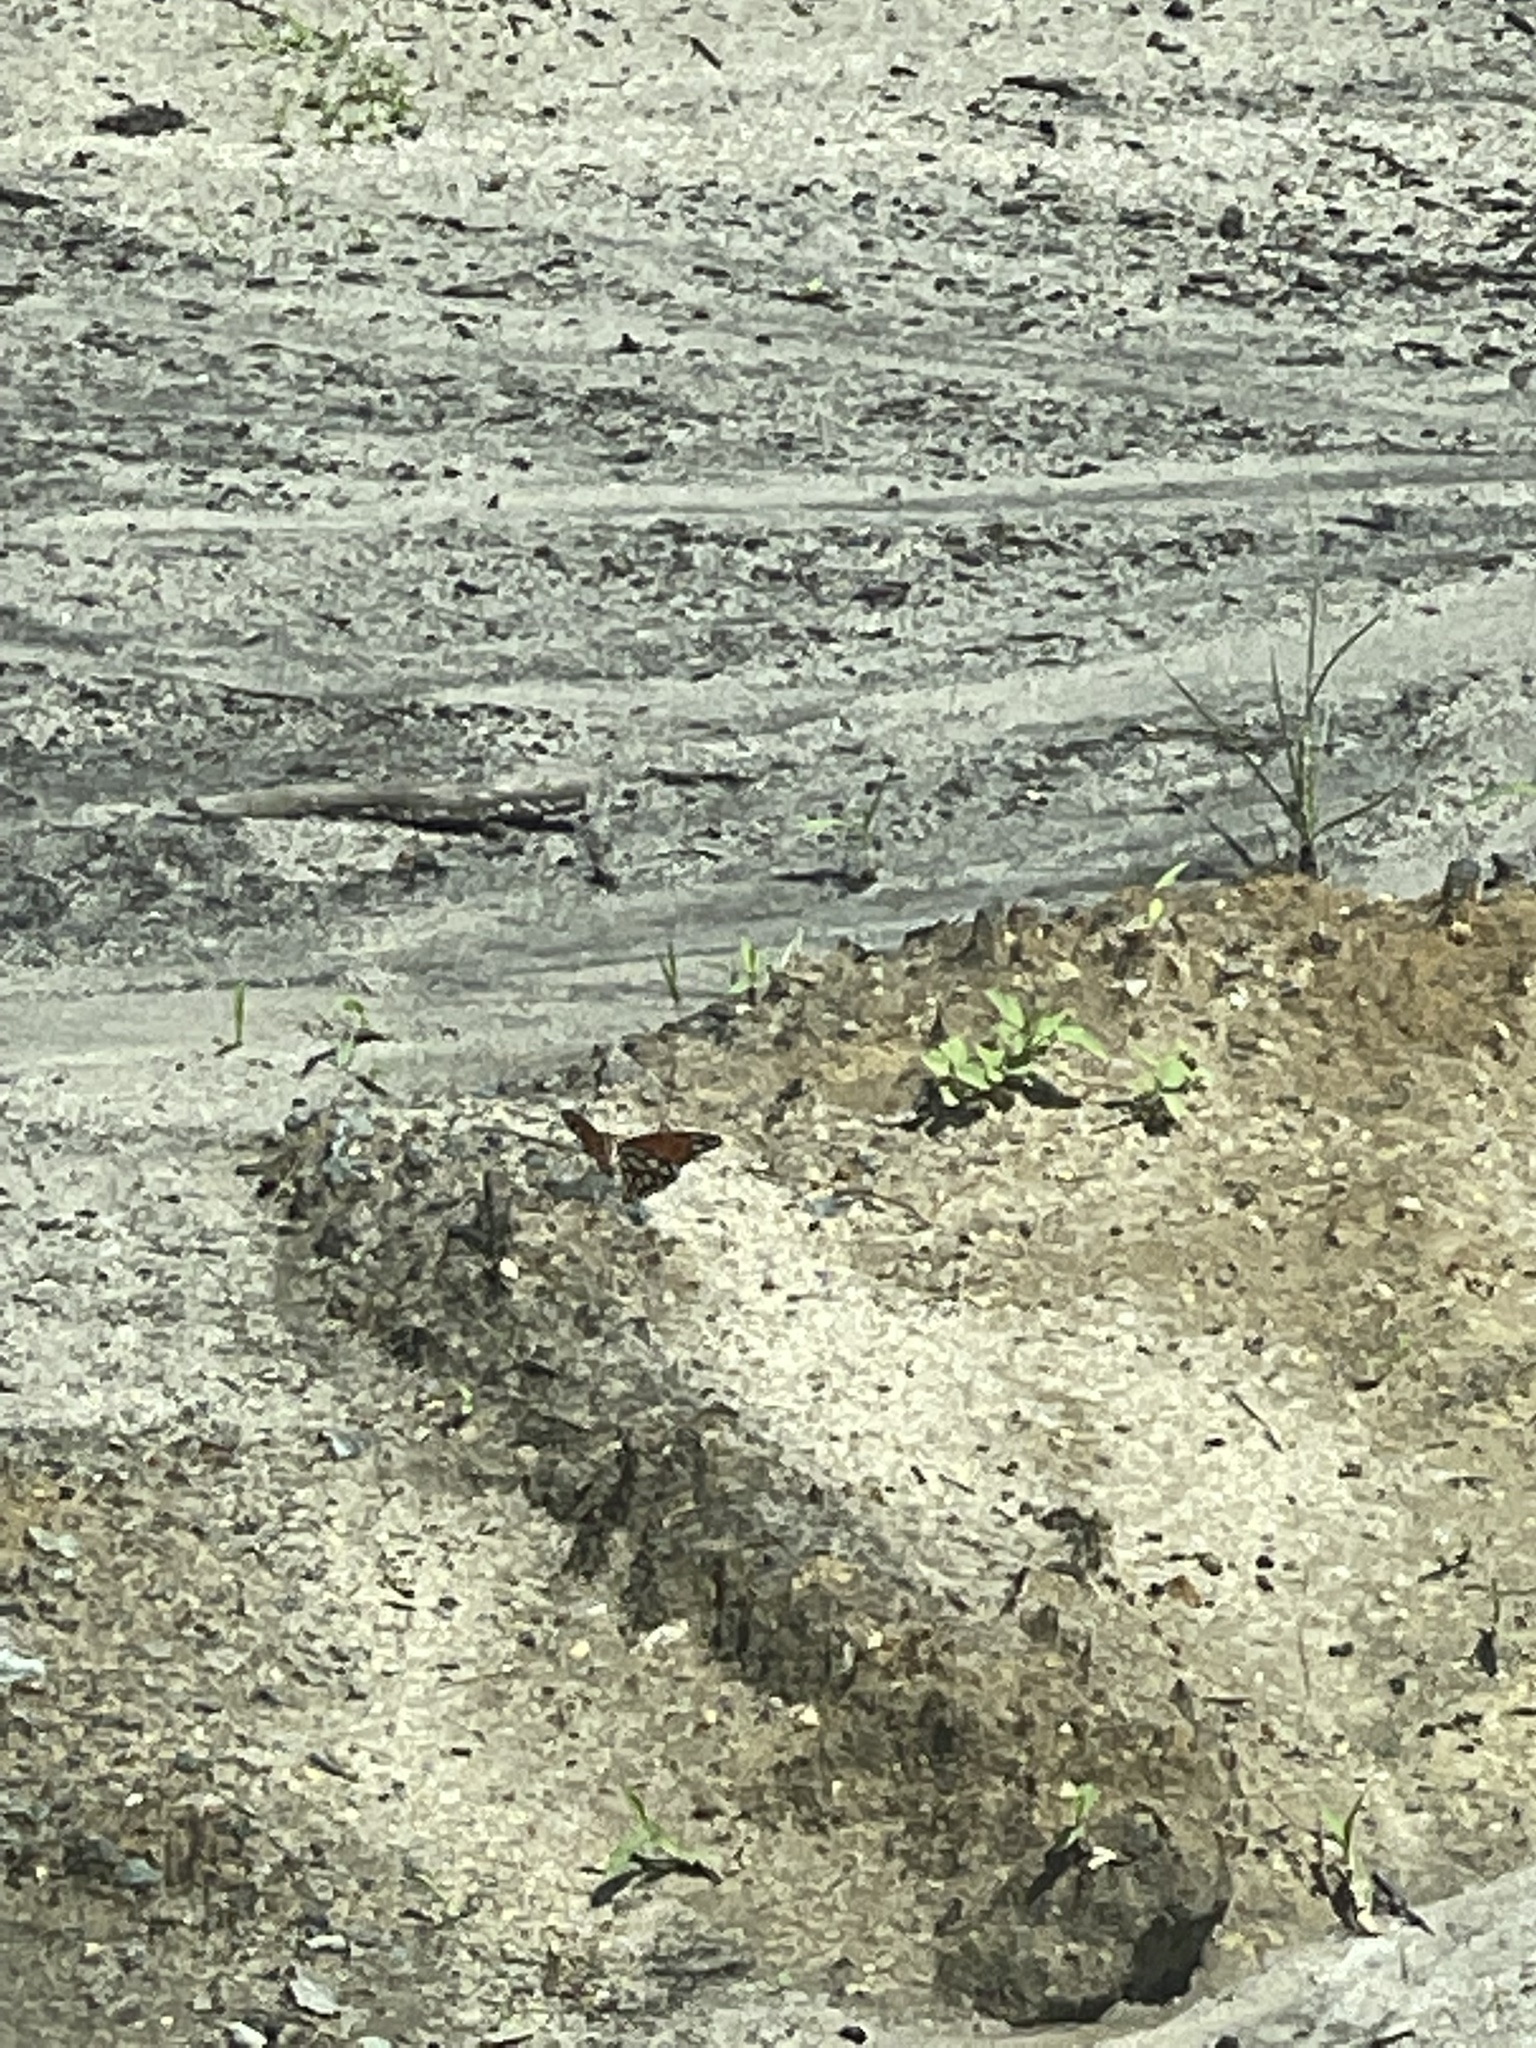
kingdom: Animalia
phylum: Arthropoda
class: Insecta
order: Lepidoptera
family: Nymphalidae
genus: Dione
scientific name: Dione vanillae
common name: Gulf fritillary
